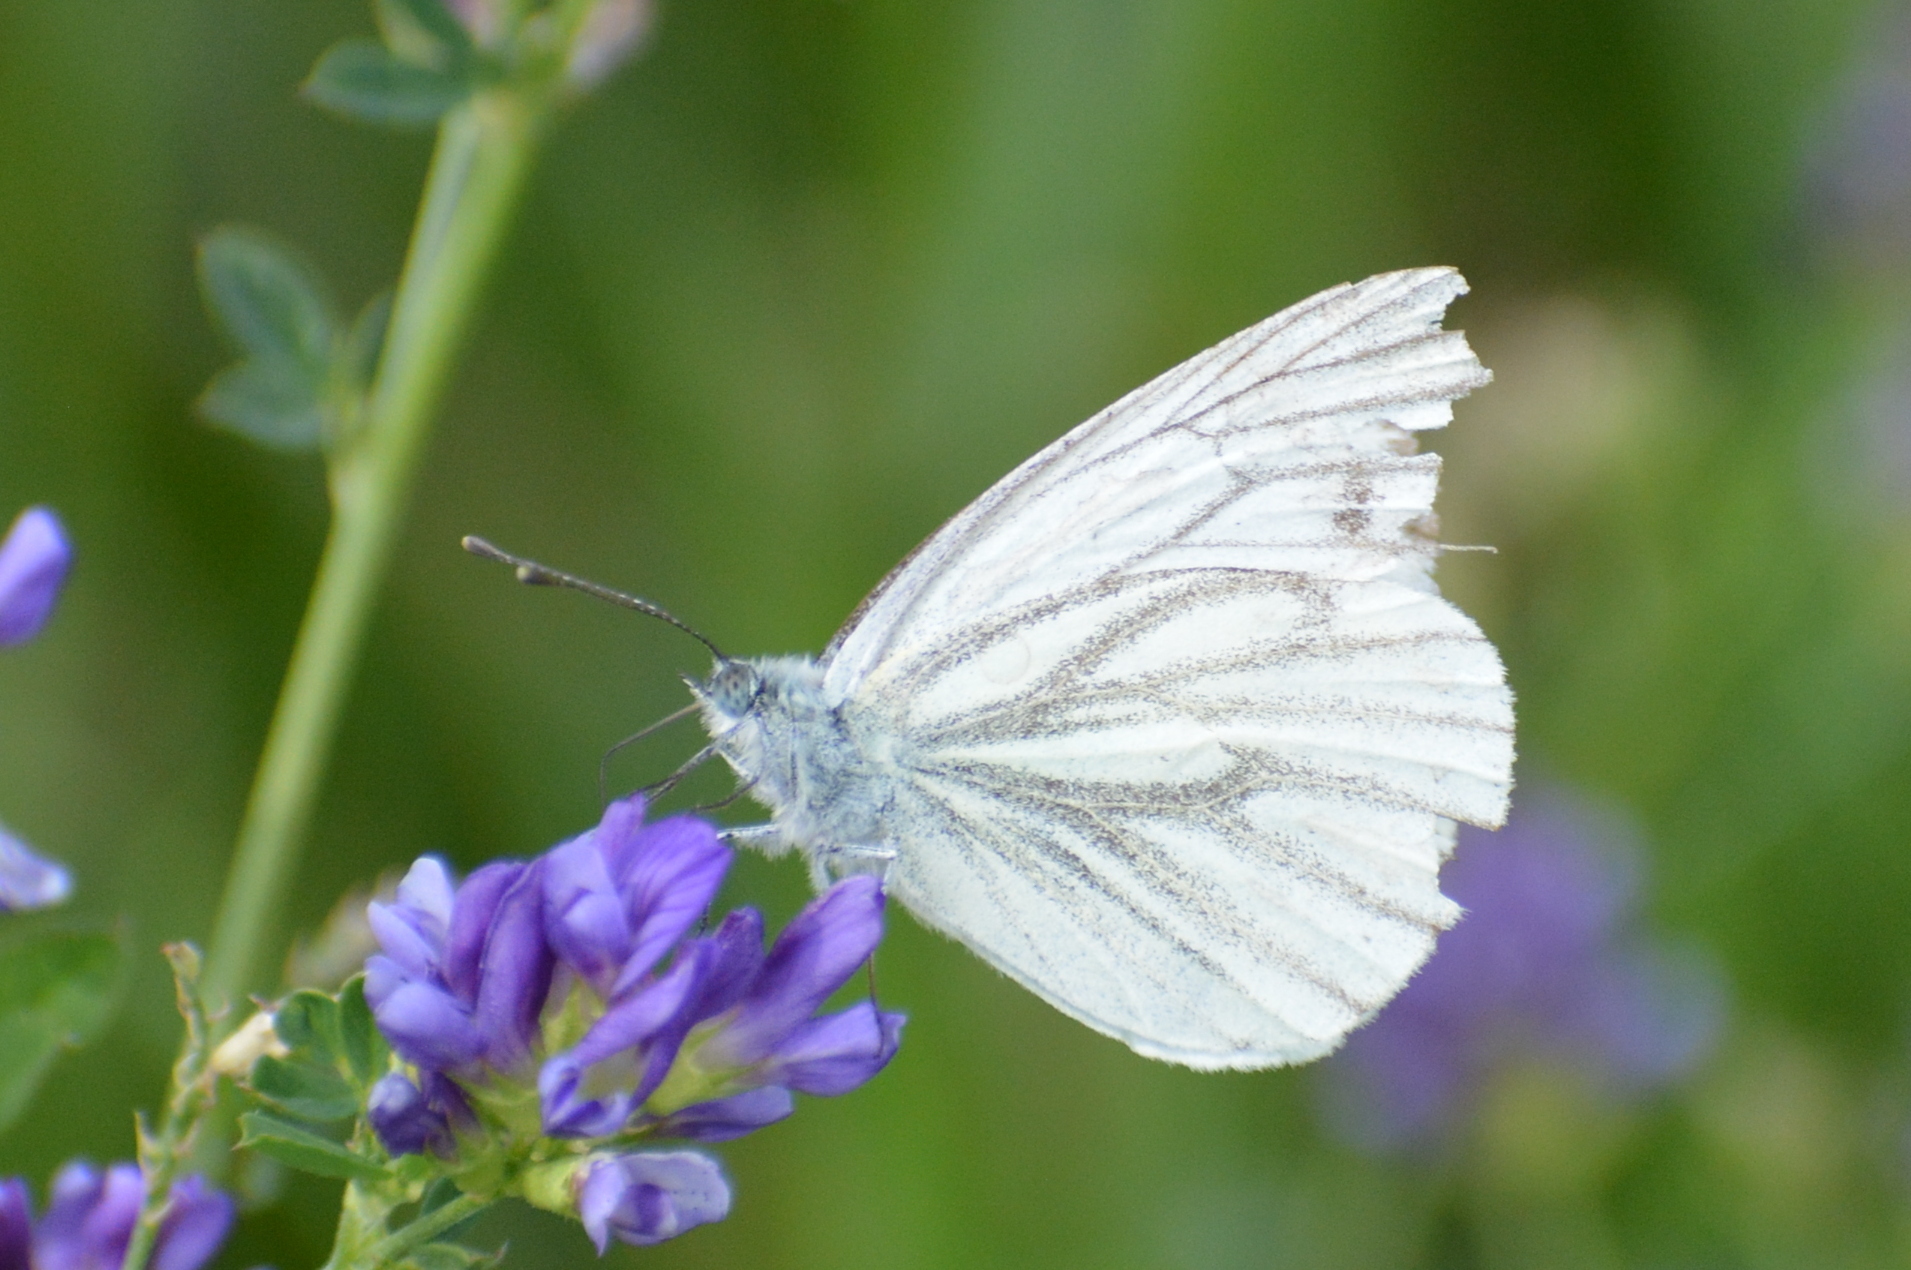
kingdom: Animalia
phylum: Arthropoda
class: Insecta
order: Lepidoptera
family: Pieridae
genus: Pieris
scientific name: Pieris napi
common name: Green-veined white
